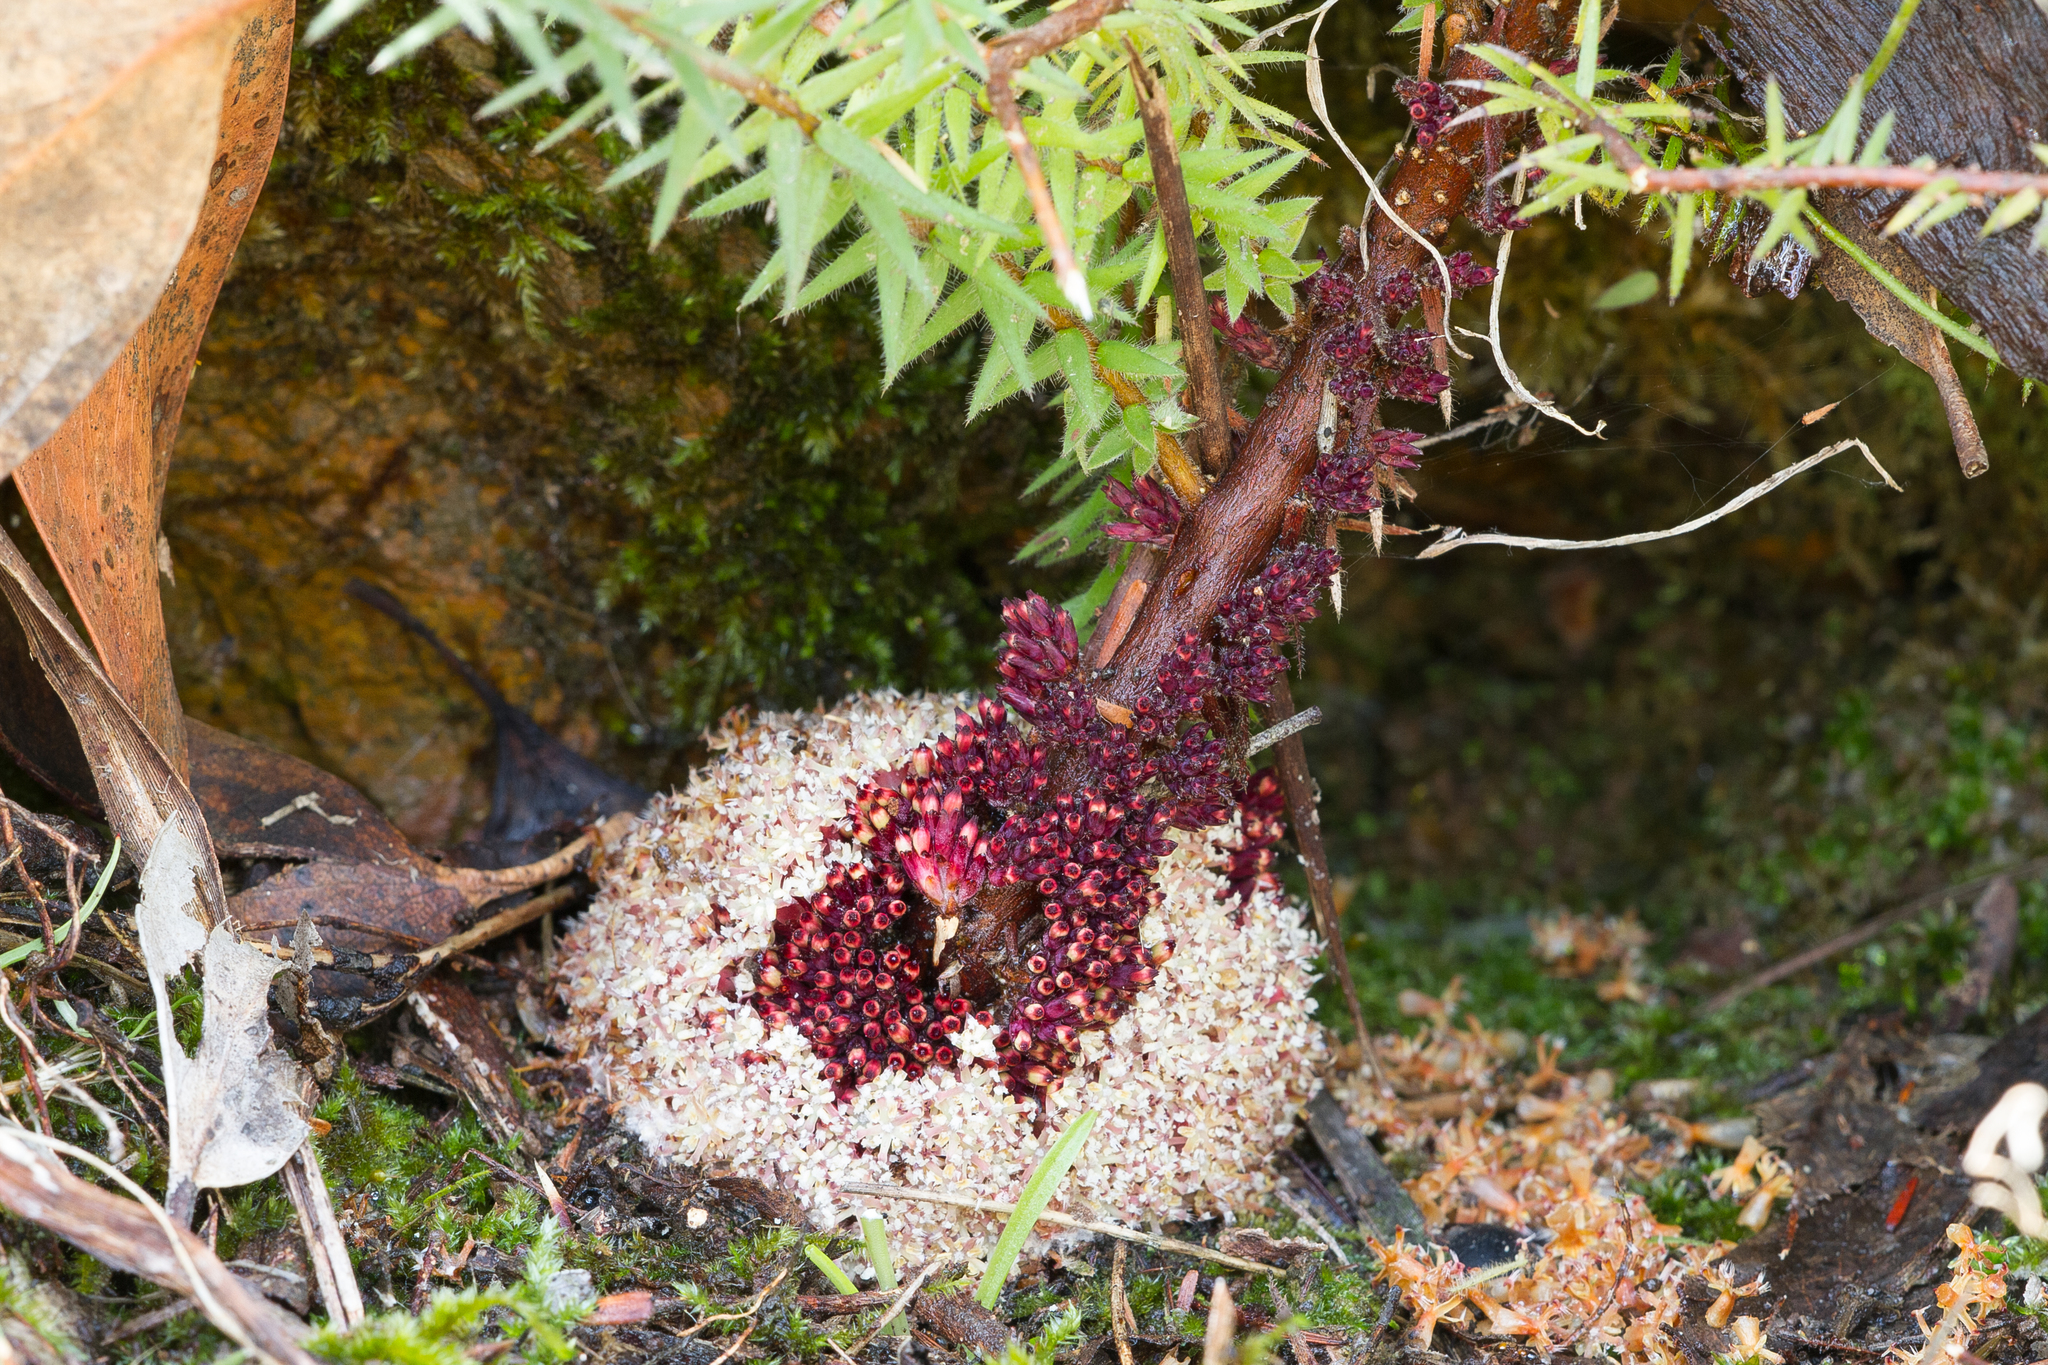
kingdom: Plantae
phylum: Tracheophyta
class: Magnoliopsida
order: Ericales
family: Ericaceae
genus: Acrotriche
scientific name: Acrotriche fasciculiflora
